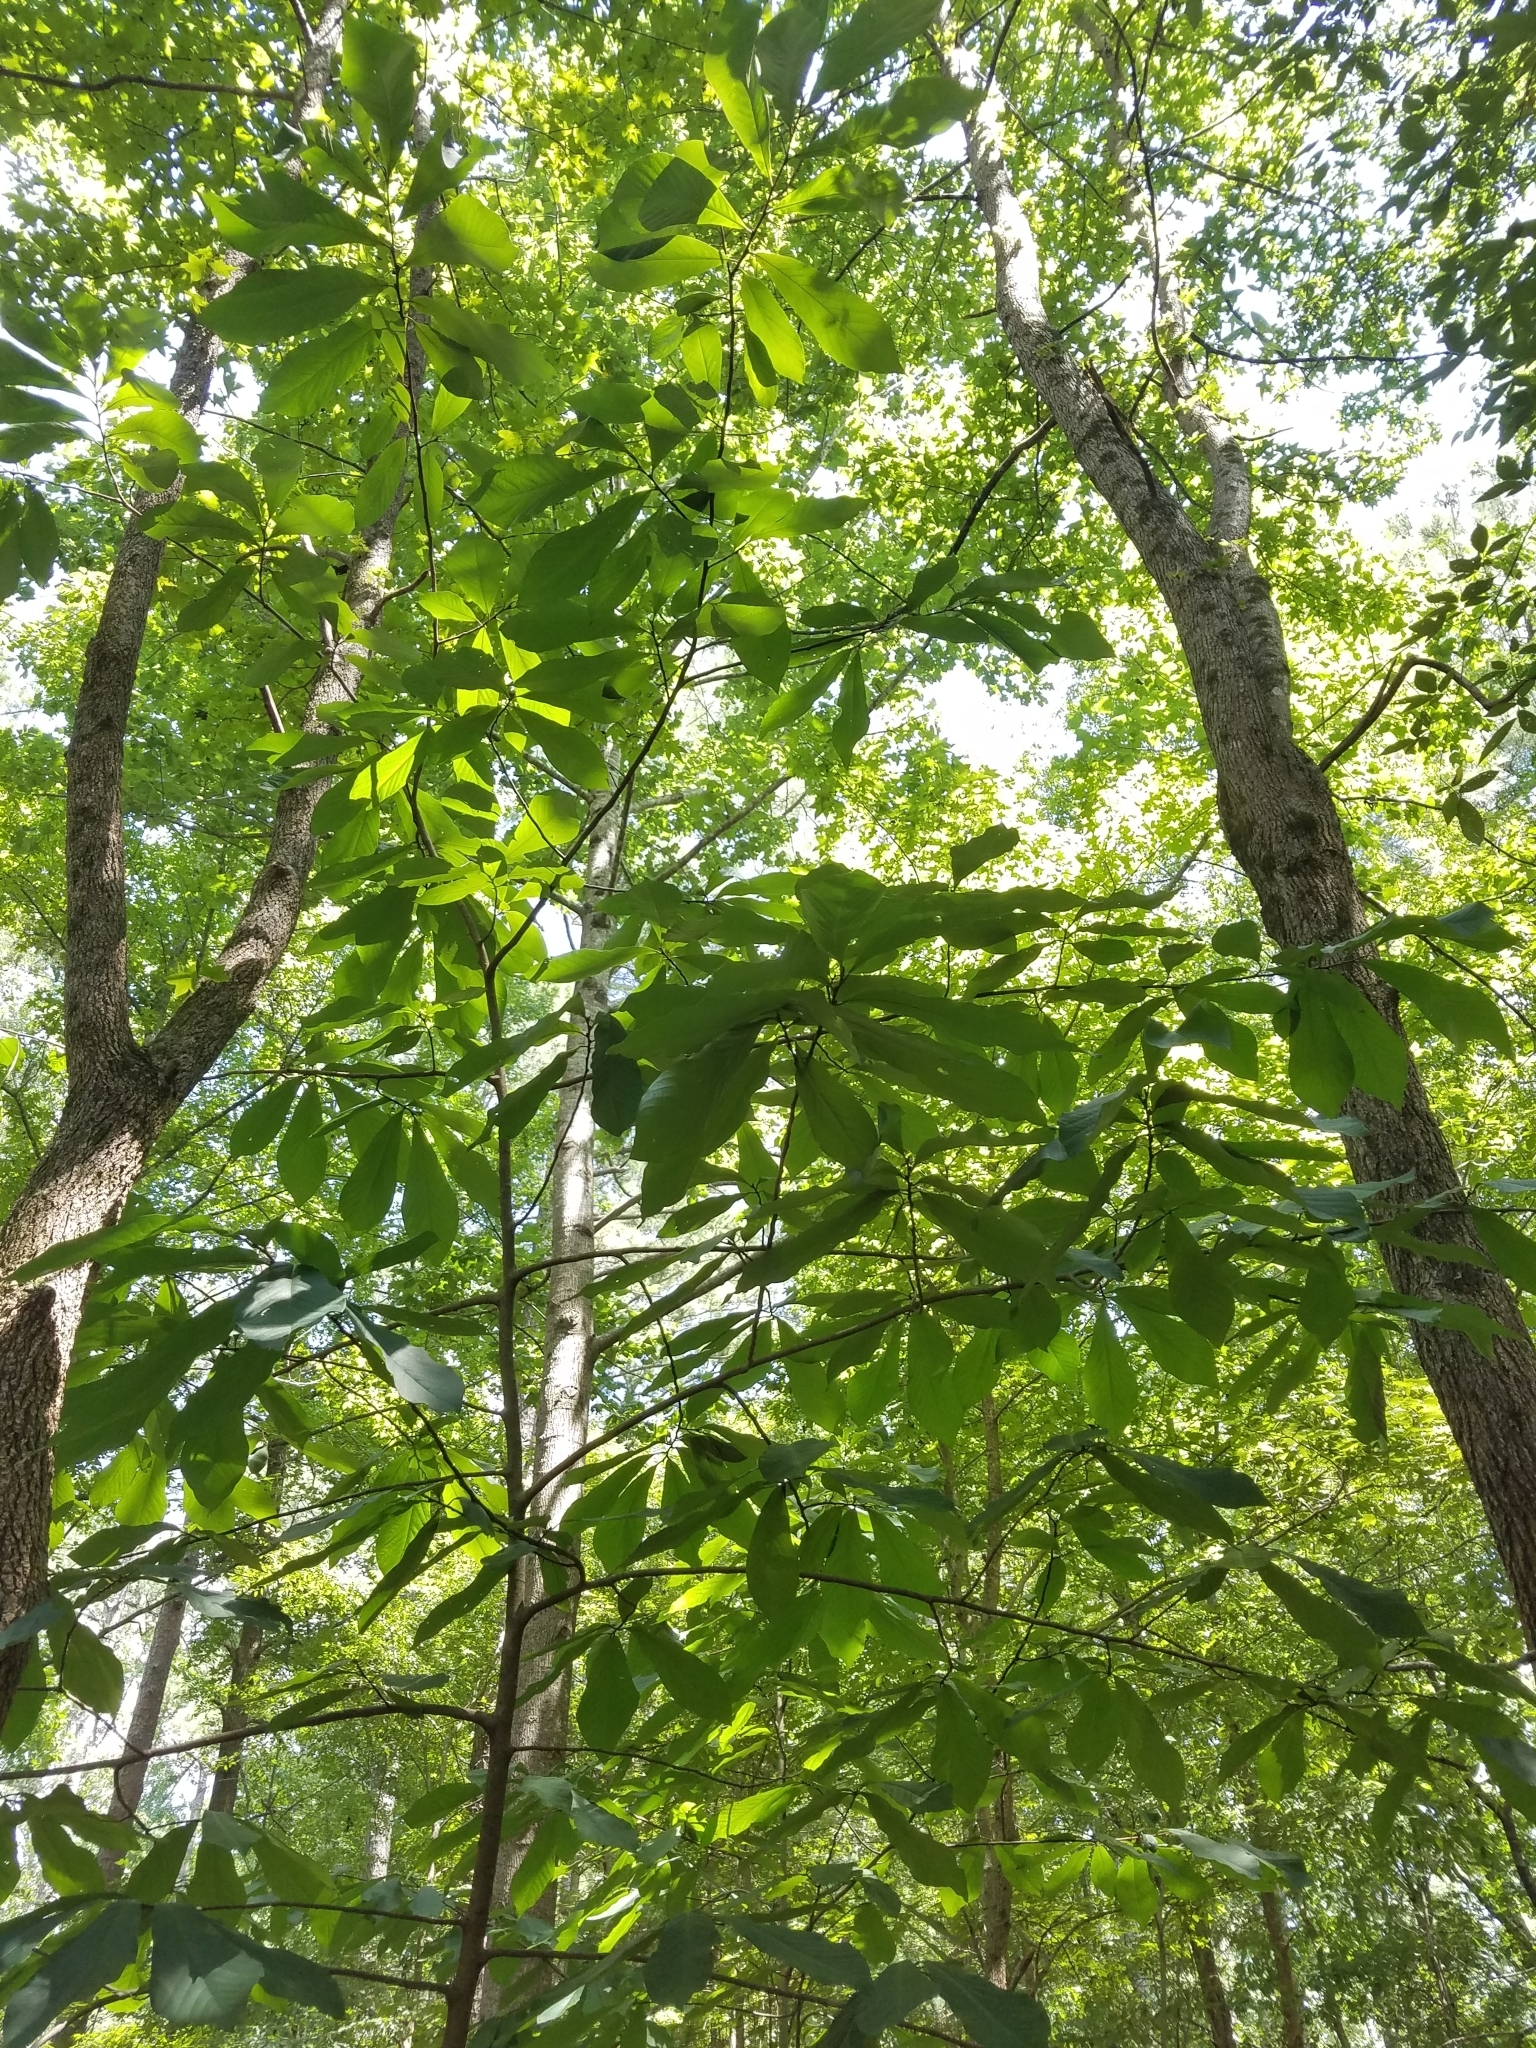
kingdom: Plantae
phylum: Tracheophyta
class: Magnoliopsida
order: Magnoliales
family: Annonaceae
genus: Asimina
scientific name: Asimina triloba
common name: Dog-banana
